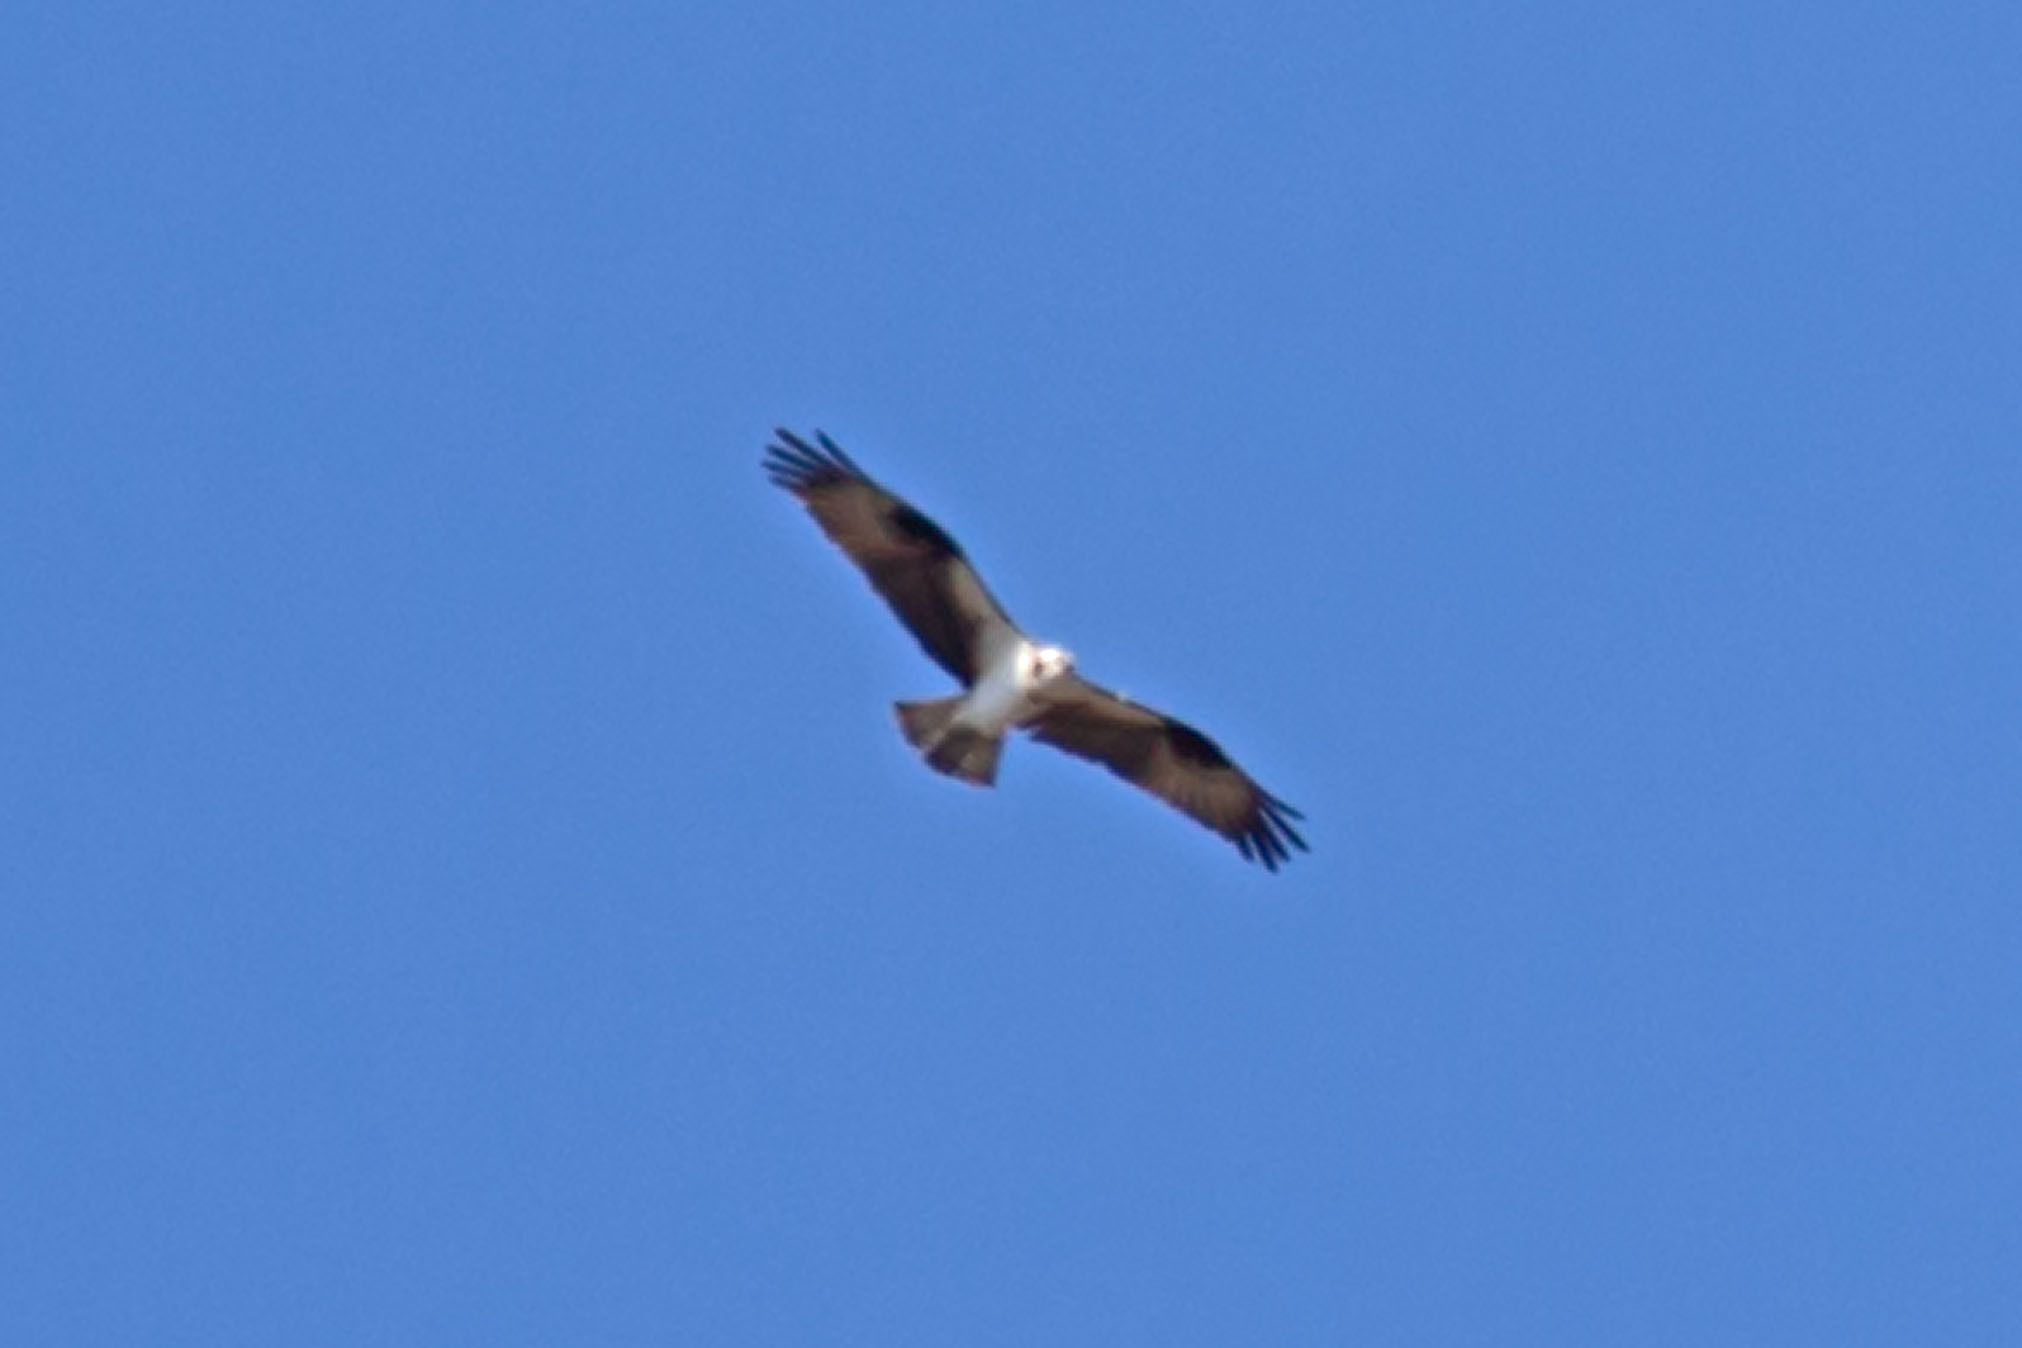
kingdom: Animalia
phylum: Chordata
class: Aves
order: Accipitriformes
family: Pandionidae
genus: Pandion
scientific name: Pandion haliaetus
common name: Osprey
